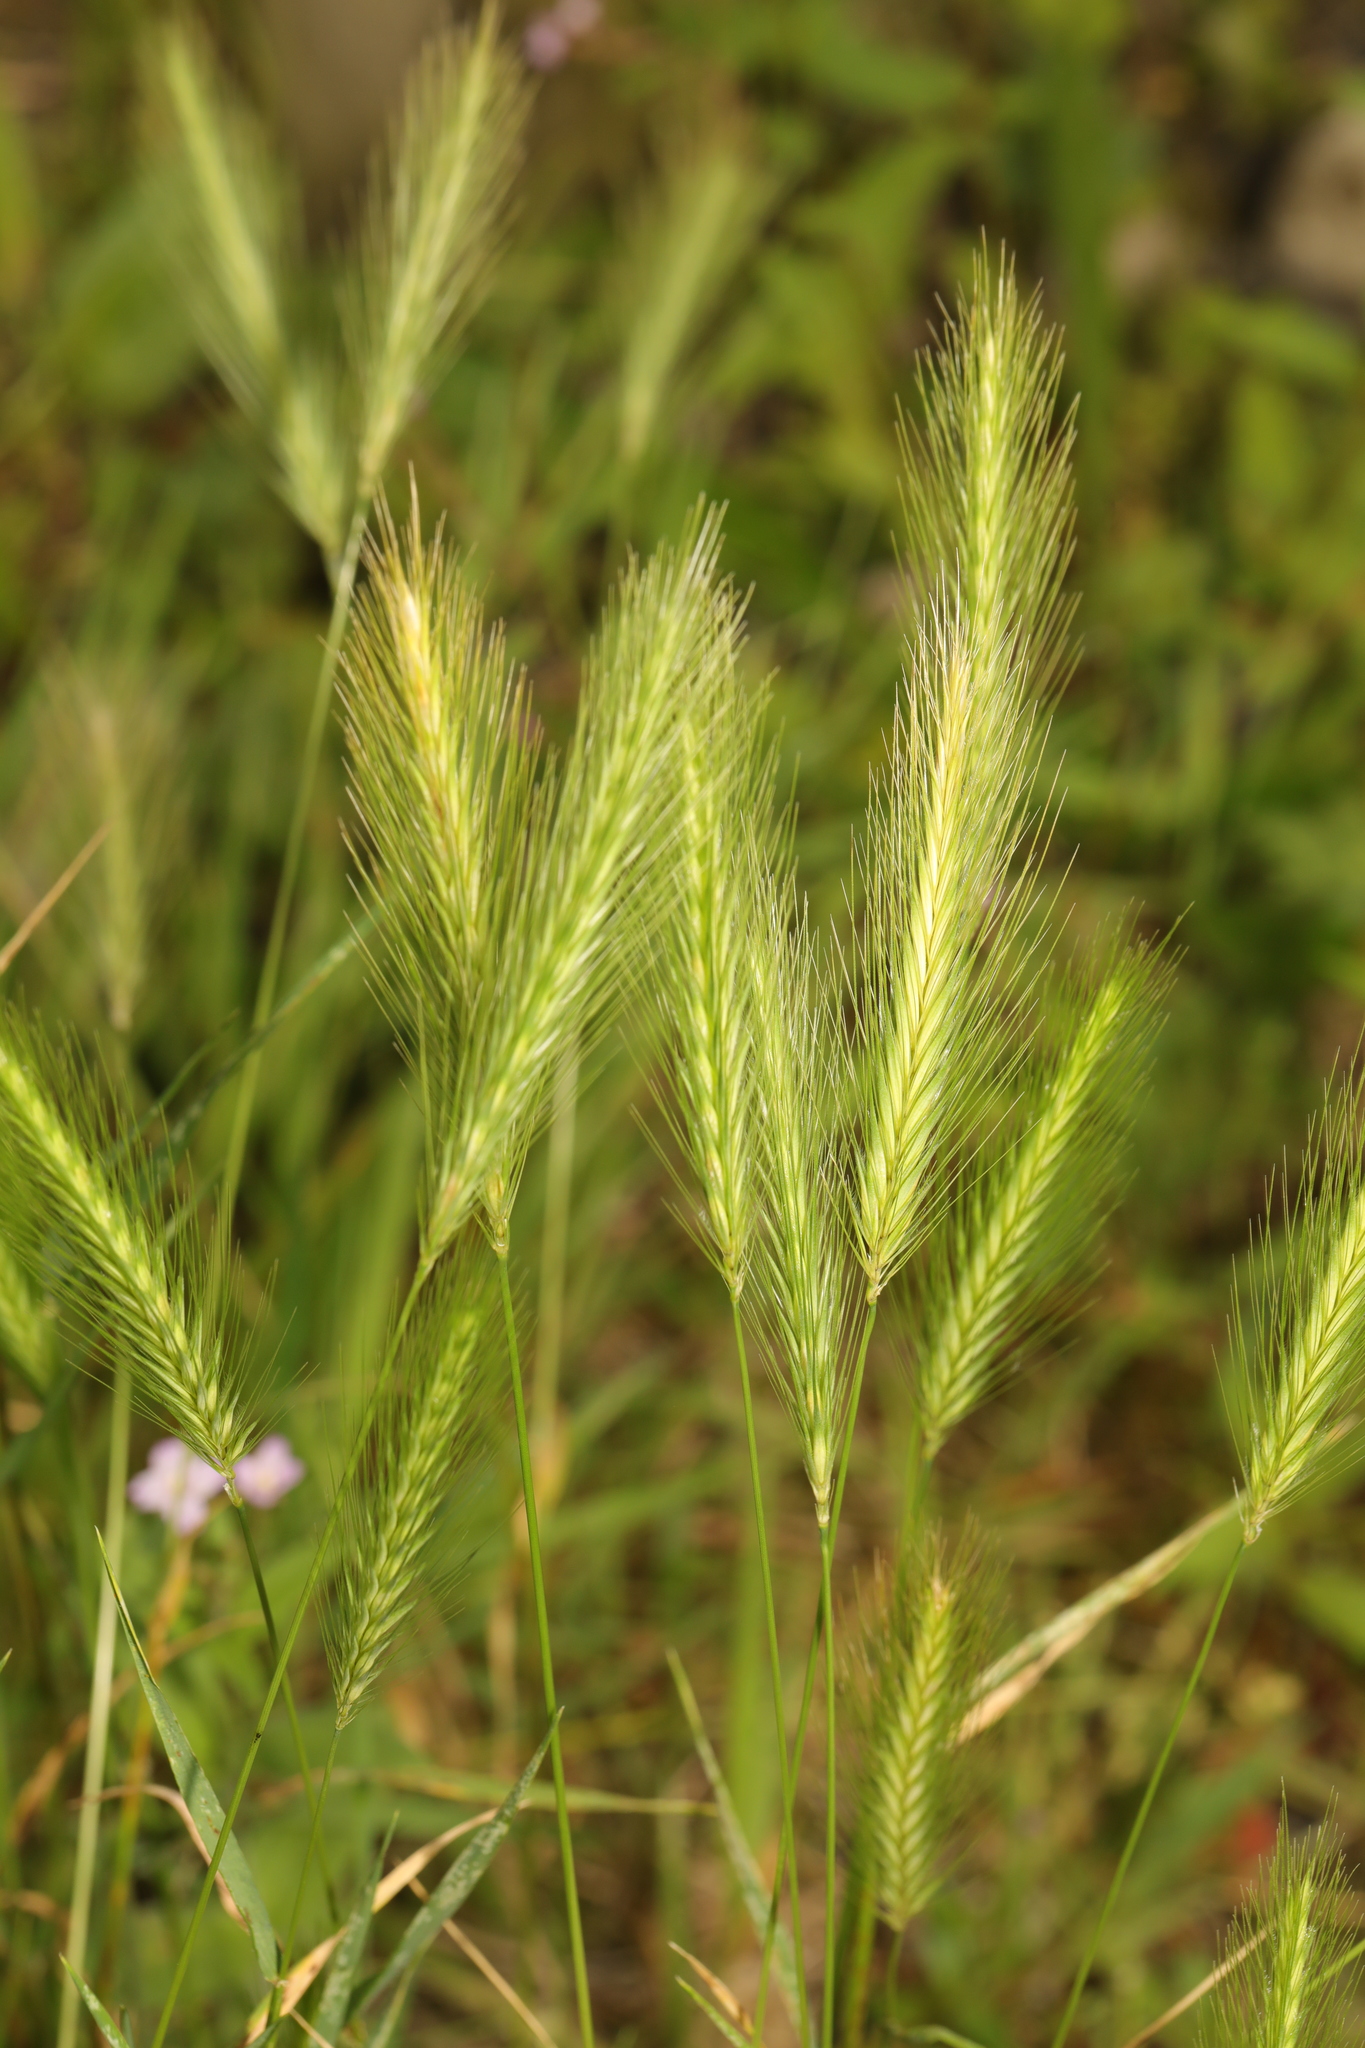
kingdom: Plantae
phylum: Tracheophyta
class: Liliopsida
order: Poales
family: Poaceae
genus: Hordeum
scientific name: Hordeum murinum
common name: Wall barley
